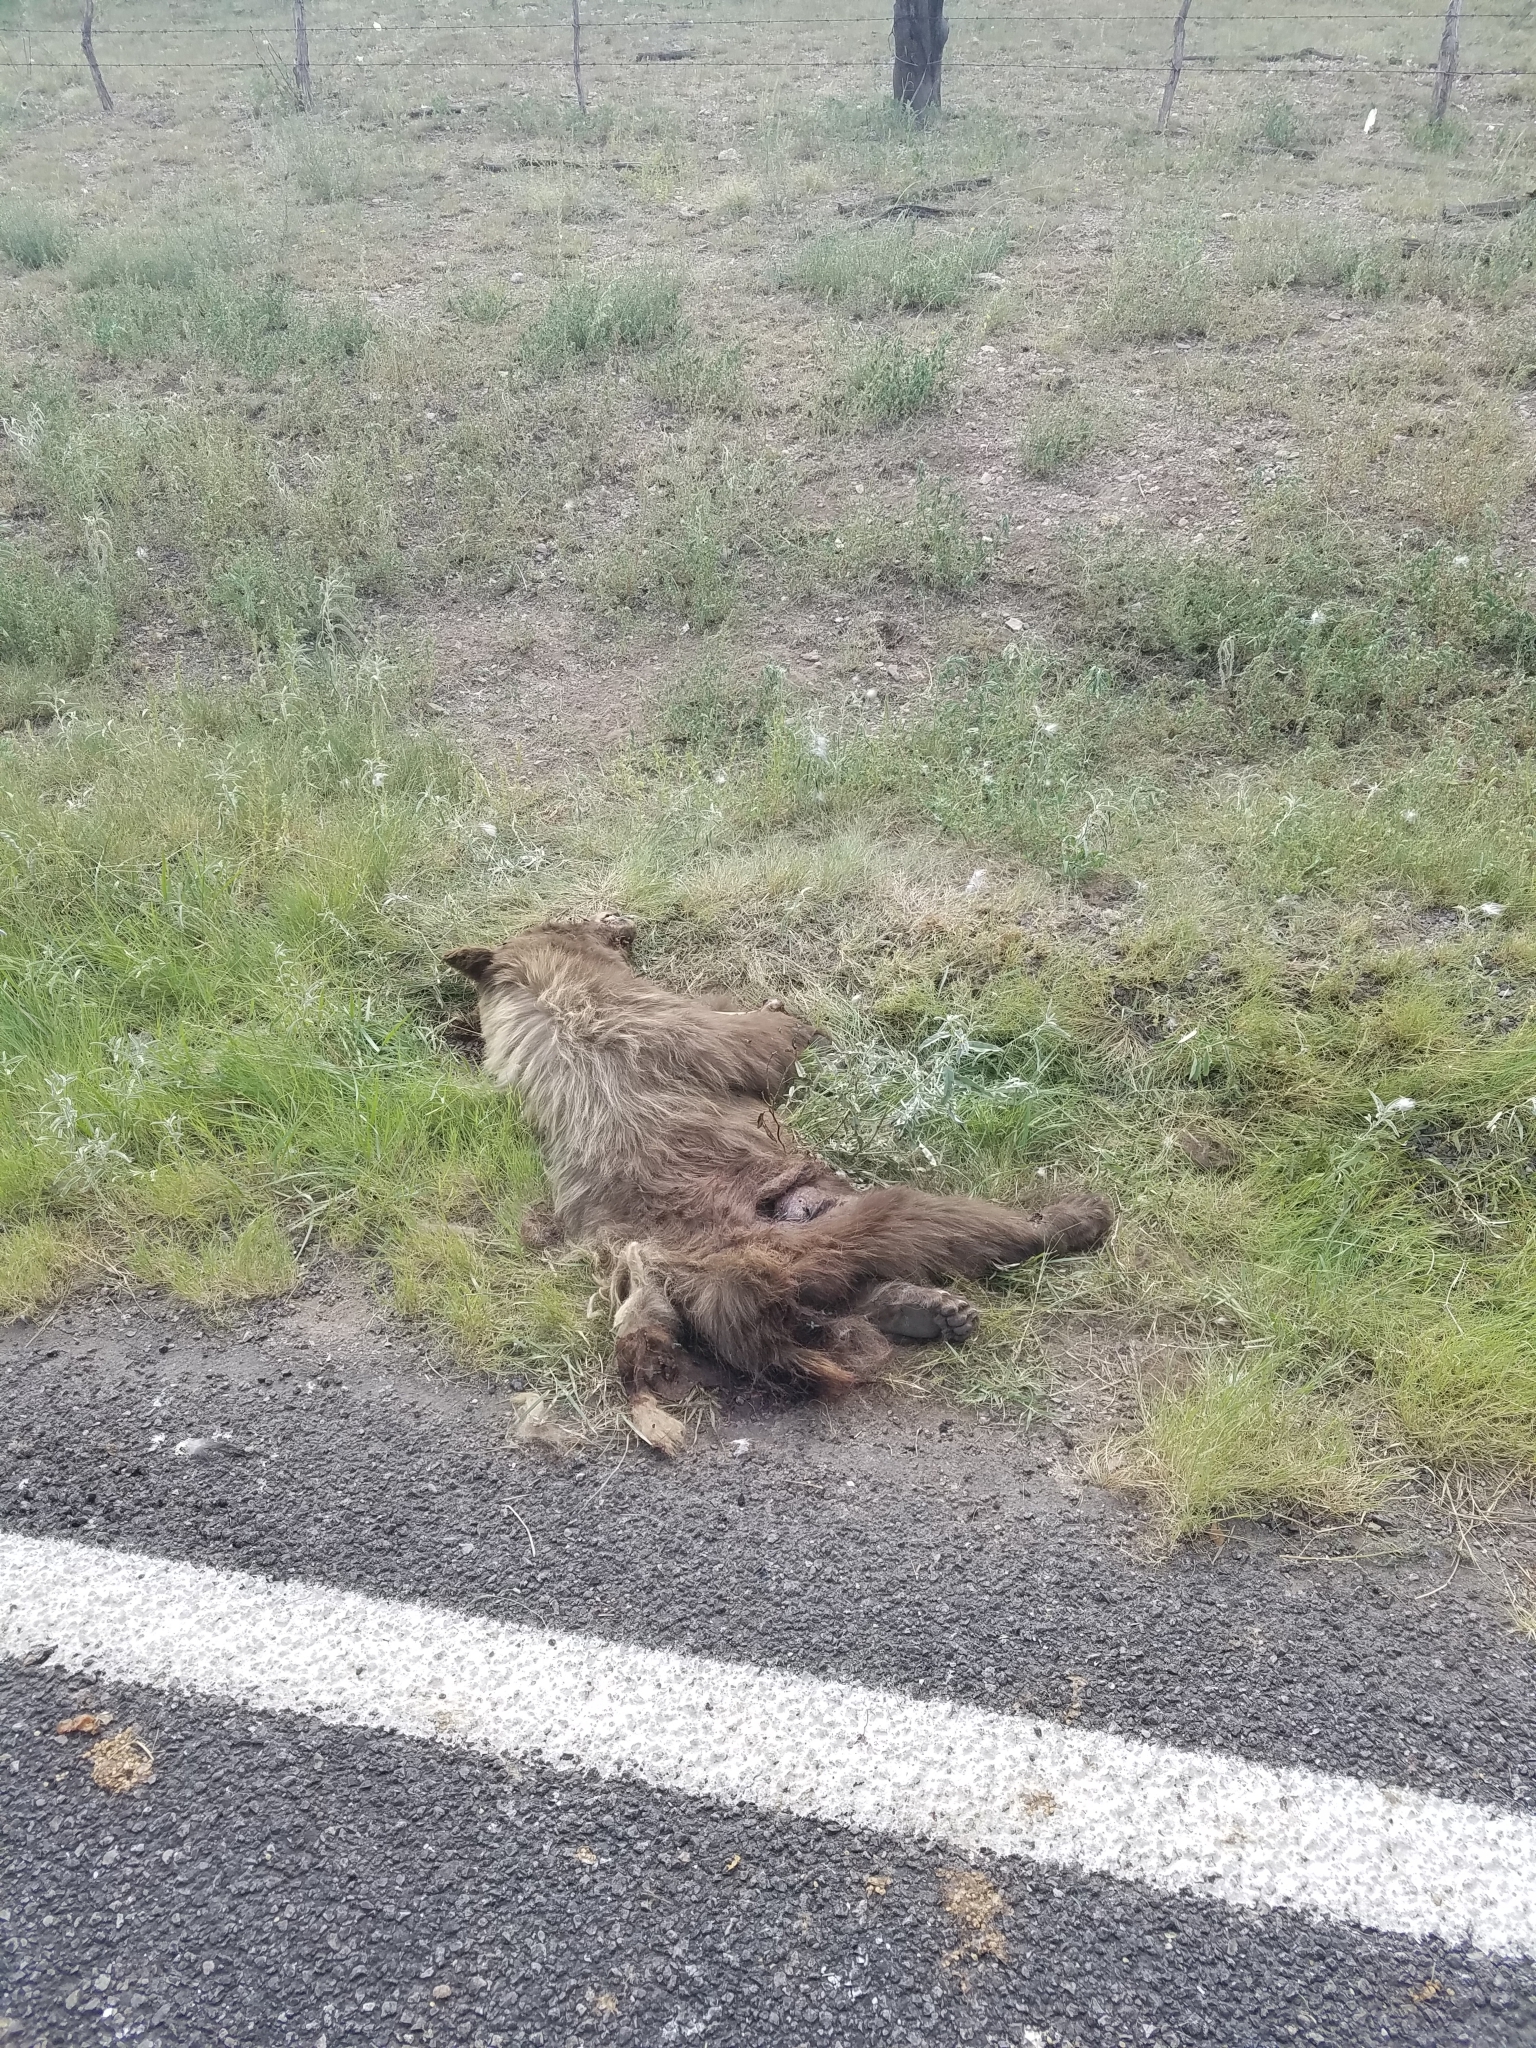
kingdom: Animalia
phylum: Chordata
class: Mammalia
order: Carnivora
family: Ursidae
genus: Ursus
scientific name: Ursus americanus
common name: American black bear
